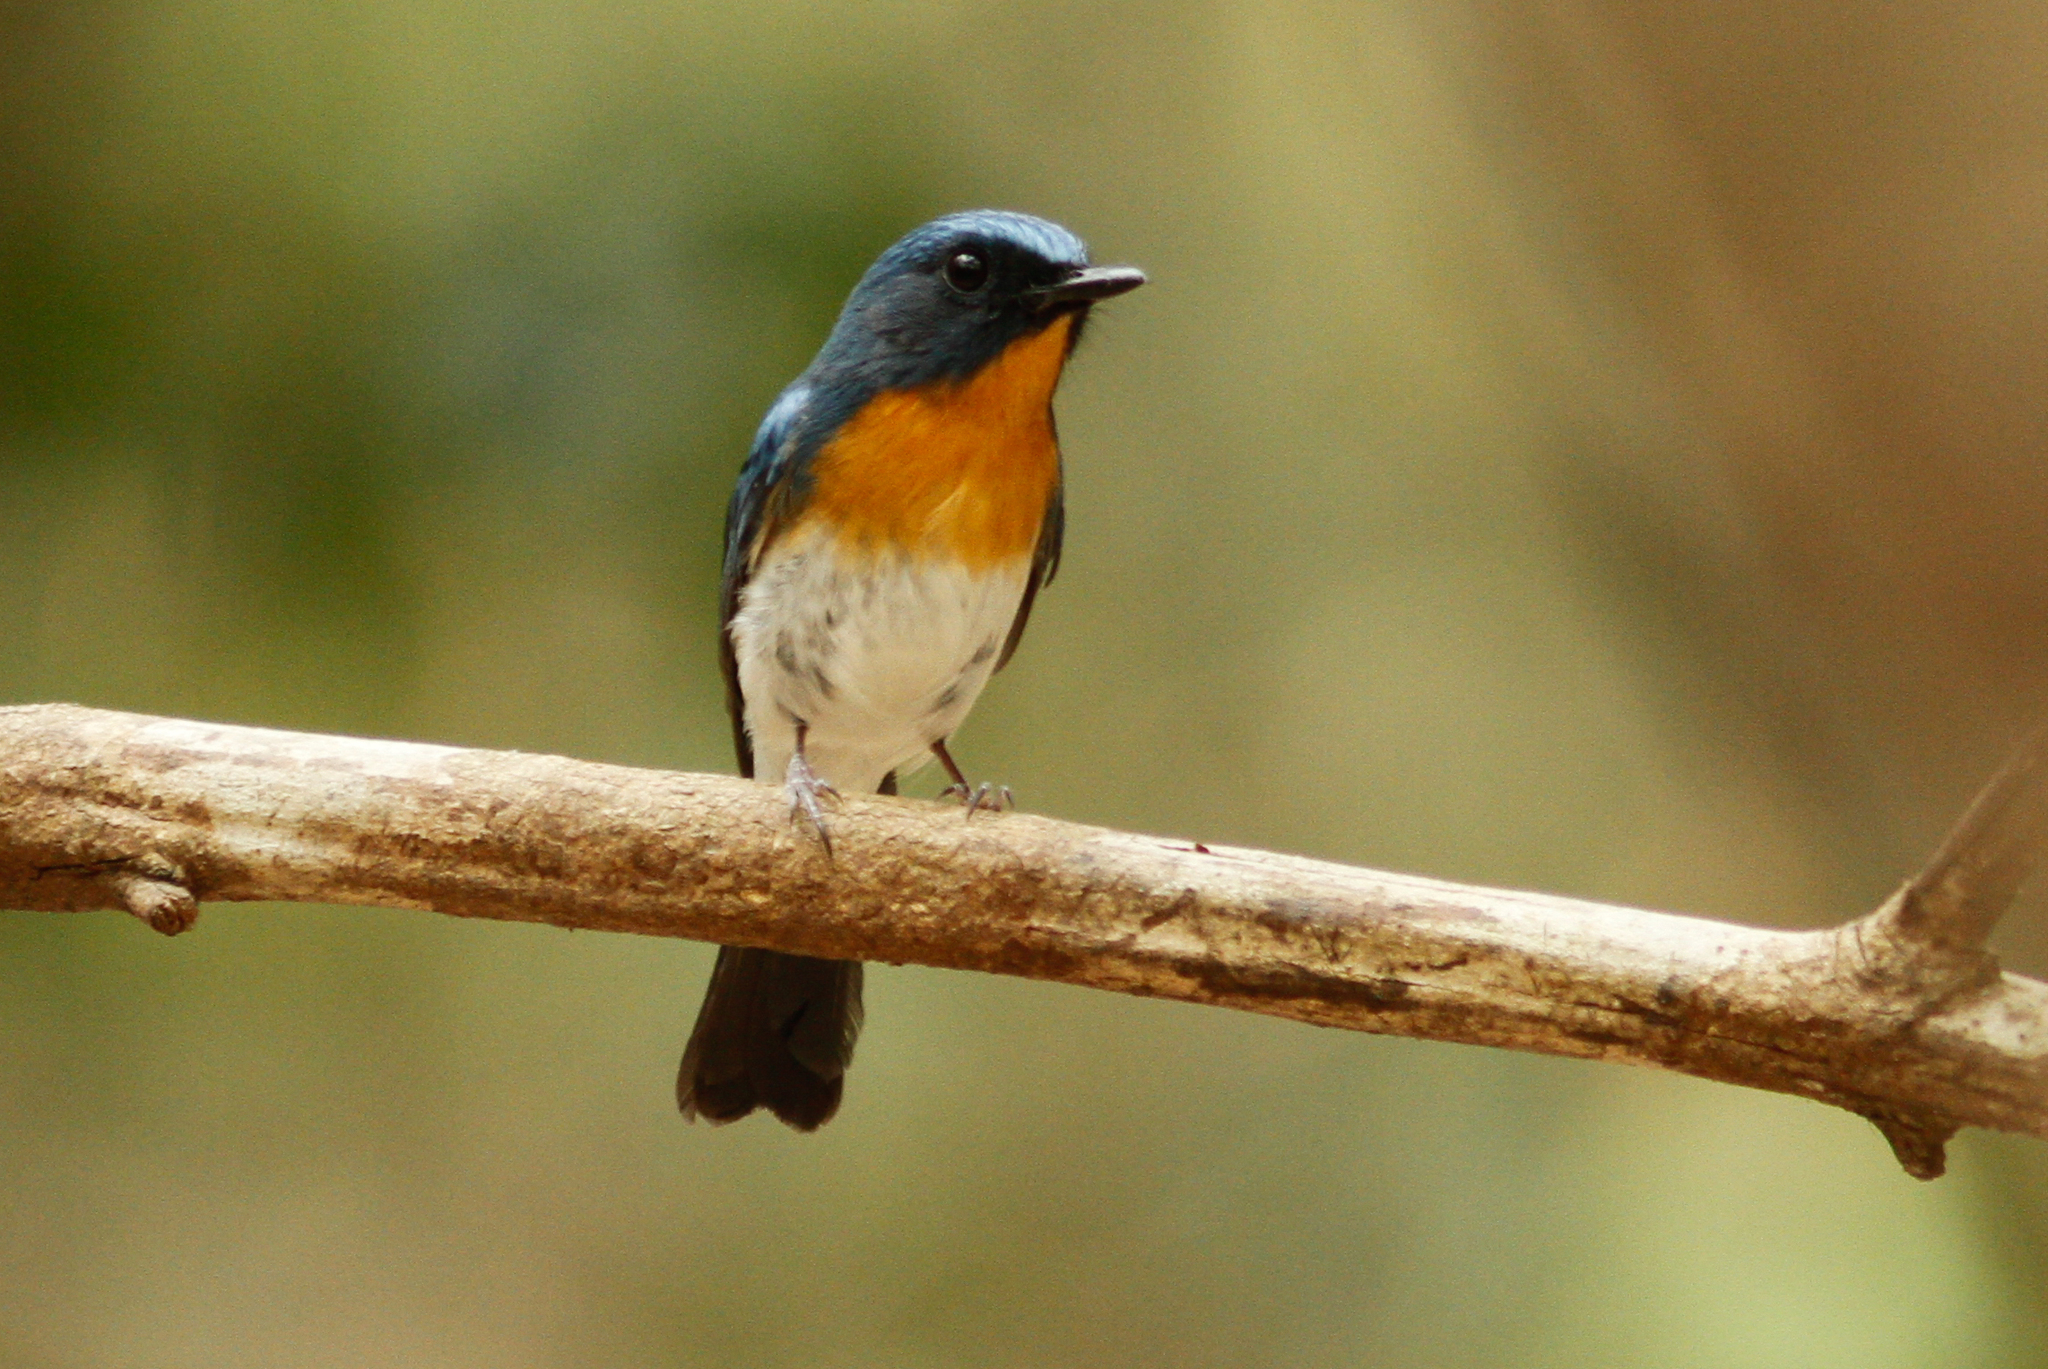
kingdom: Animalia
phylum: Chordata
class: Aves
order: Passeriformes
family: Muscicapidae
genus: Cyornis
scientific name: Cyornis tickelliae
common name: Tickell's blue flycatcher
